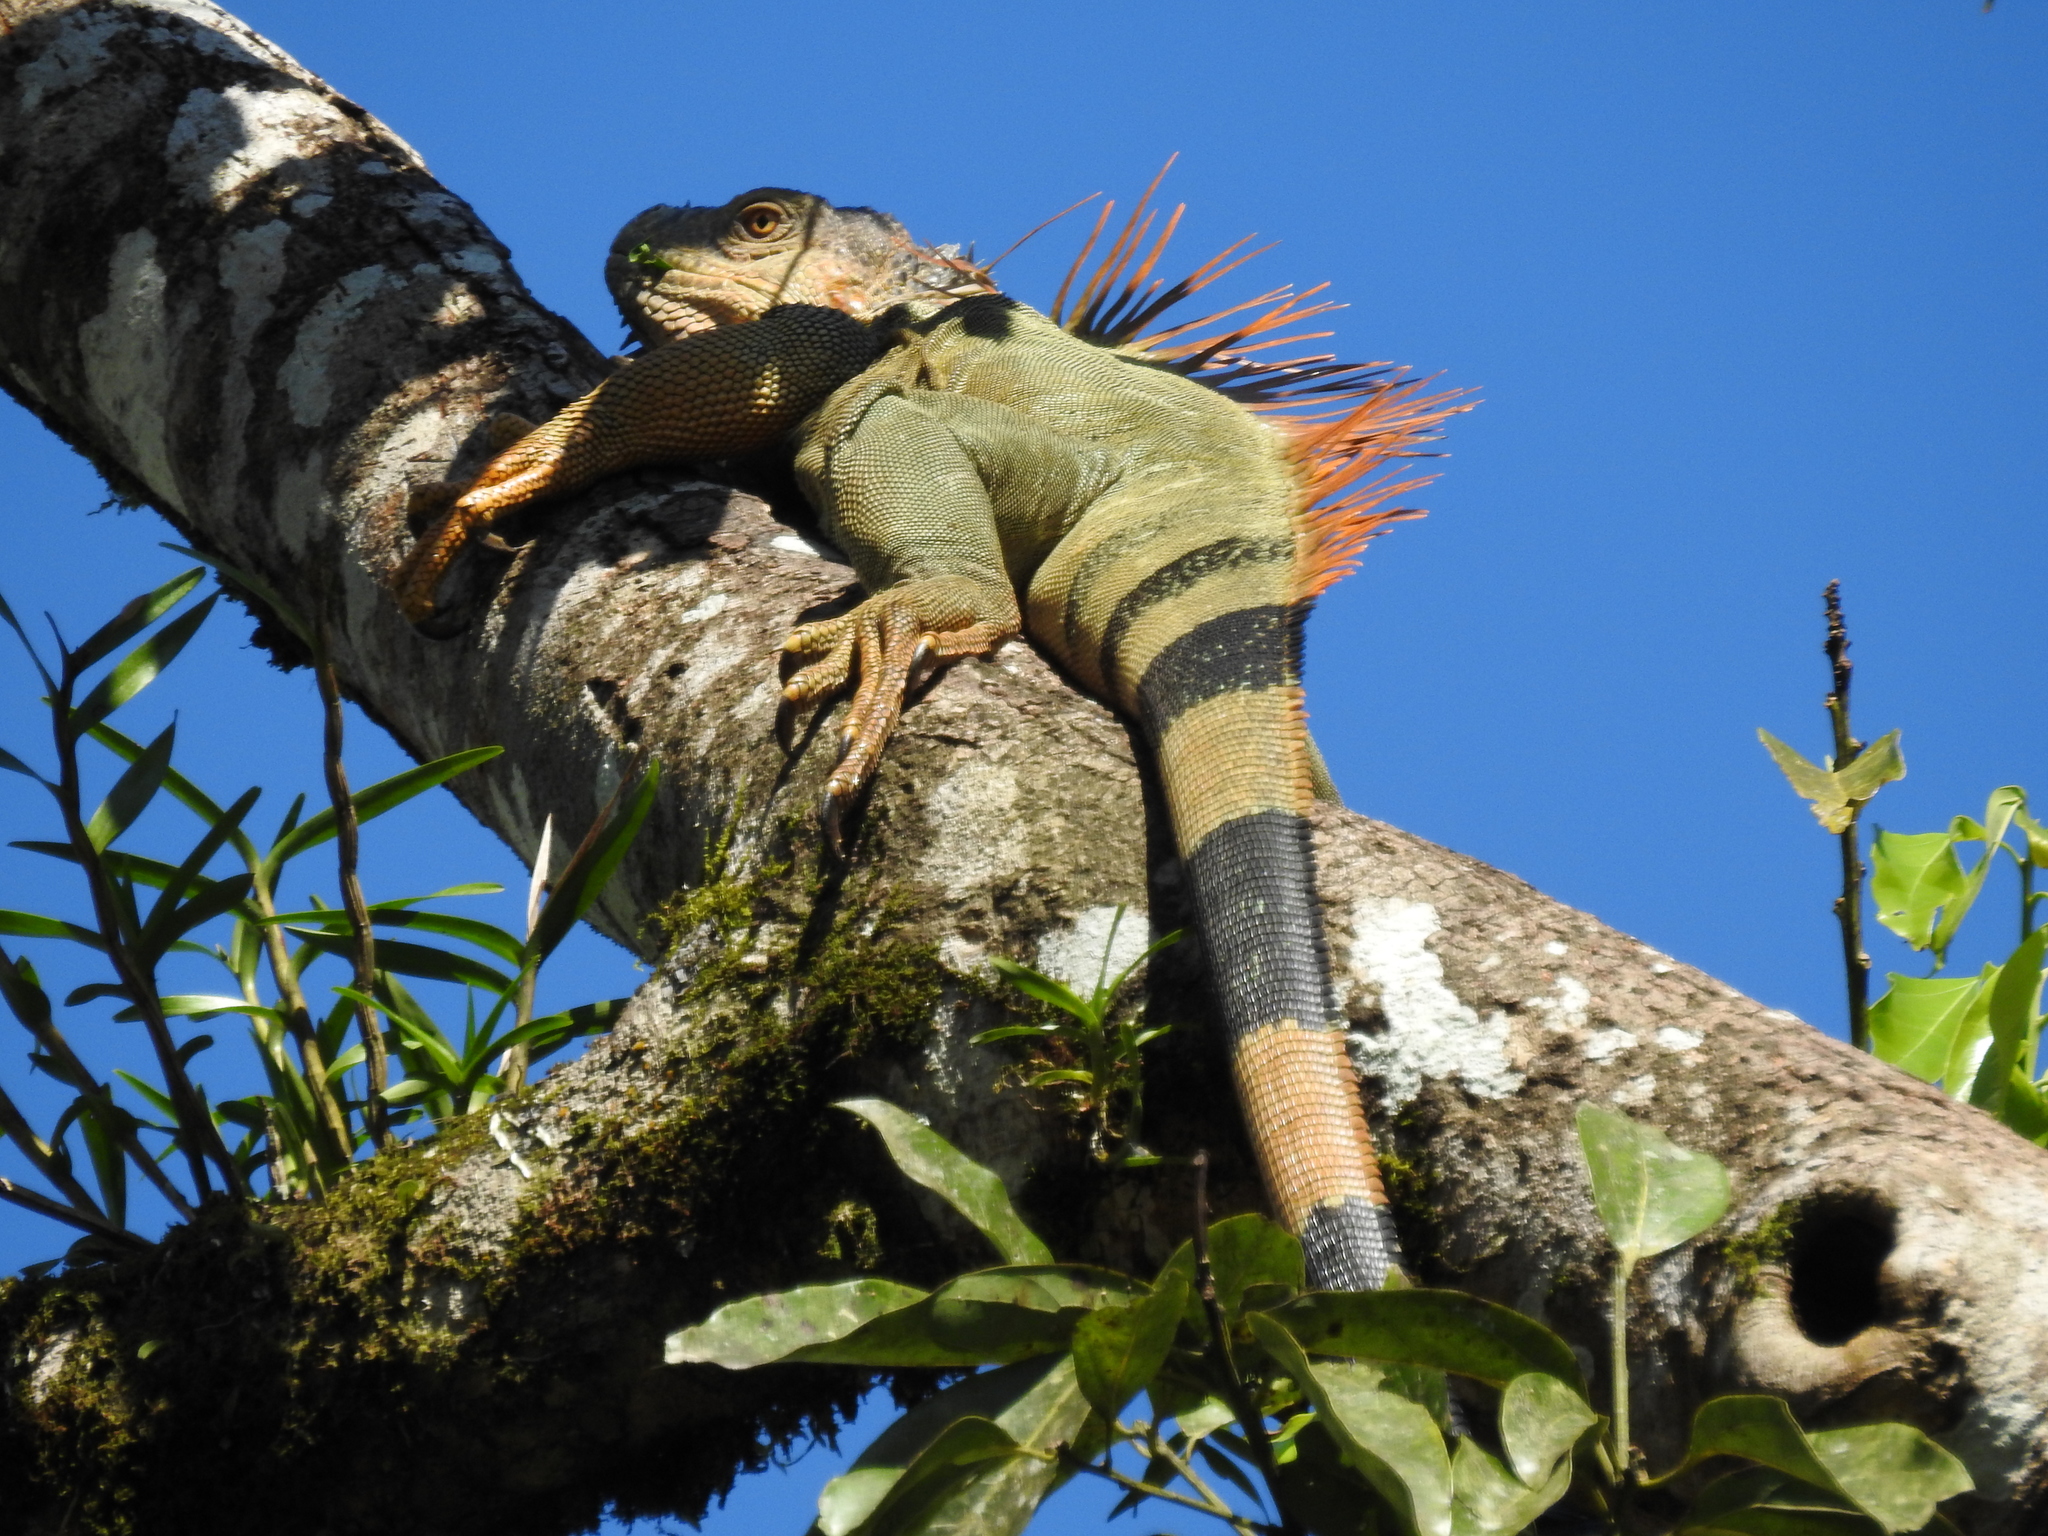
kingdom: Animalia
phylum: Chordata
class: Squamata
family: Iguanidae
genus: Iguana
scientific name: Iguana iguana
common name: Green iguana
